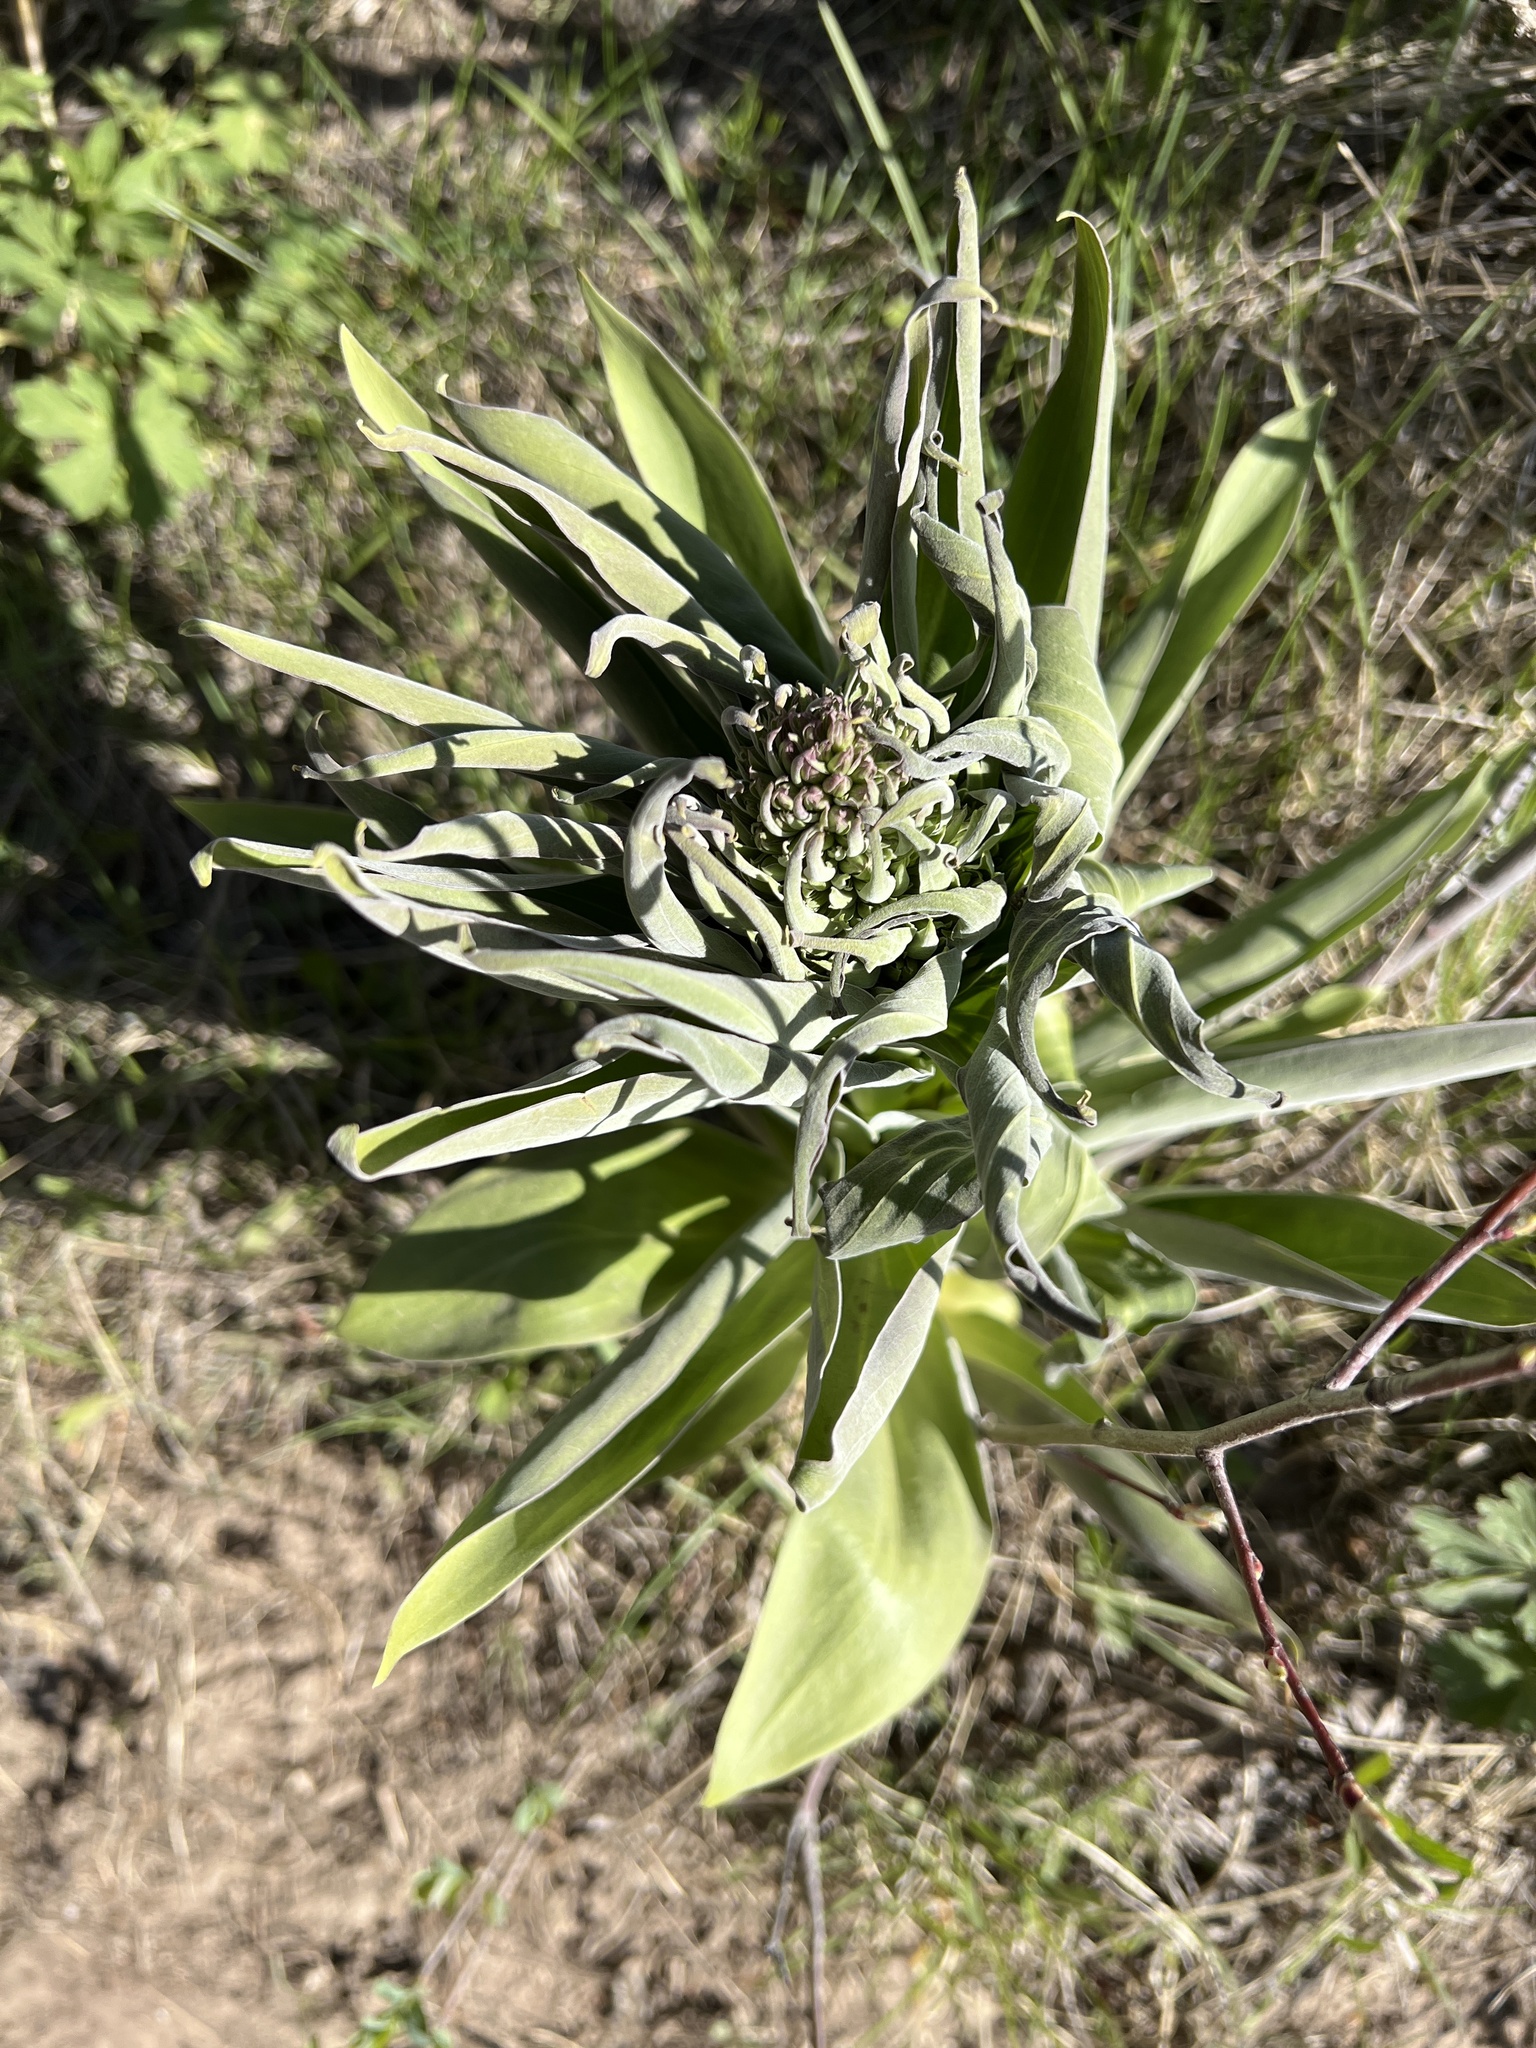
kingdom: Plantae
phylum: Tracheophyta
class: Magnoliopsida
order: Gentianales
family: Gentianaceae
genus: Frasera
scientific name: Frasera speciosa
